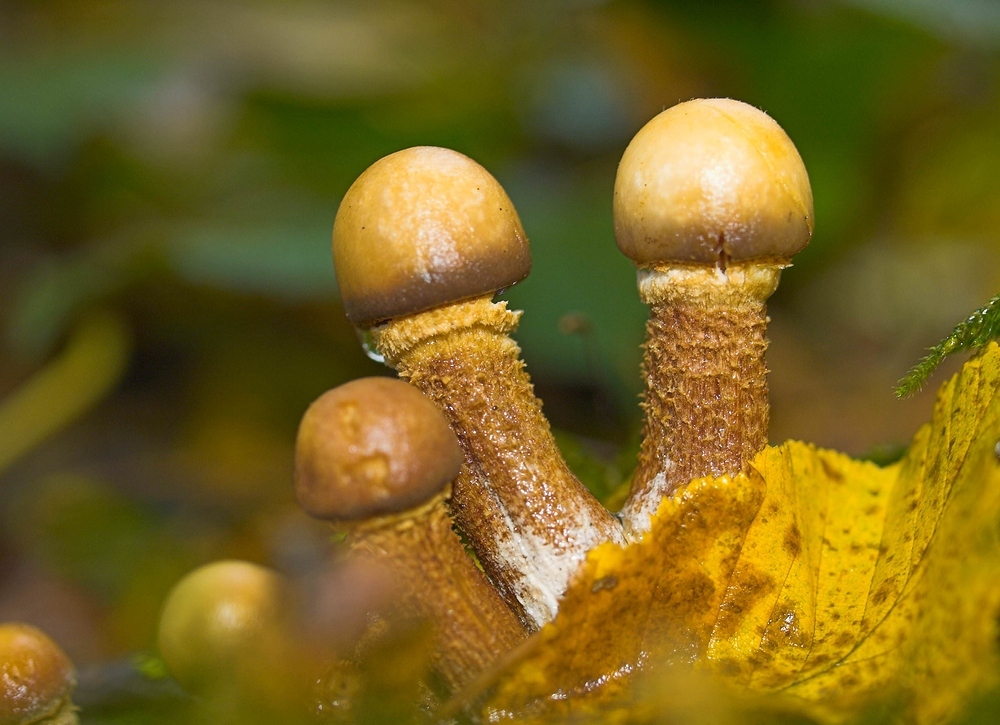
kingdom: Fungi
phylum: Basidiomycota
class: Agaricomycetes
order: Agaricales
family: Strophariaceae
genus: Kuehneromyces
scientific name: Kuehneromyces mutabilis
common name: Sheathed woodtuft
